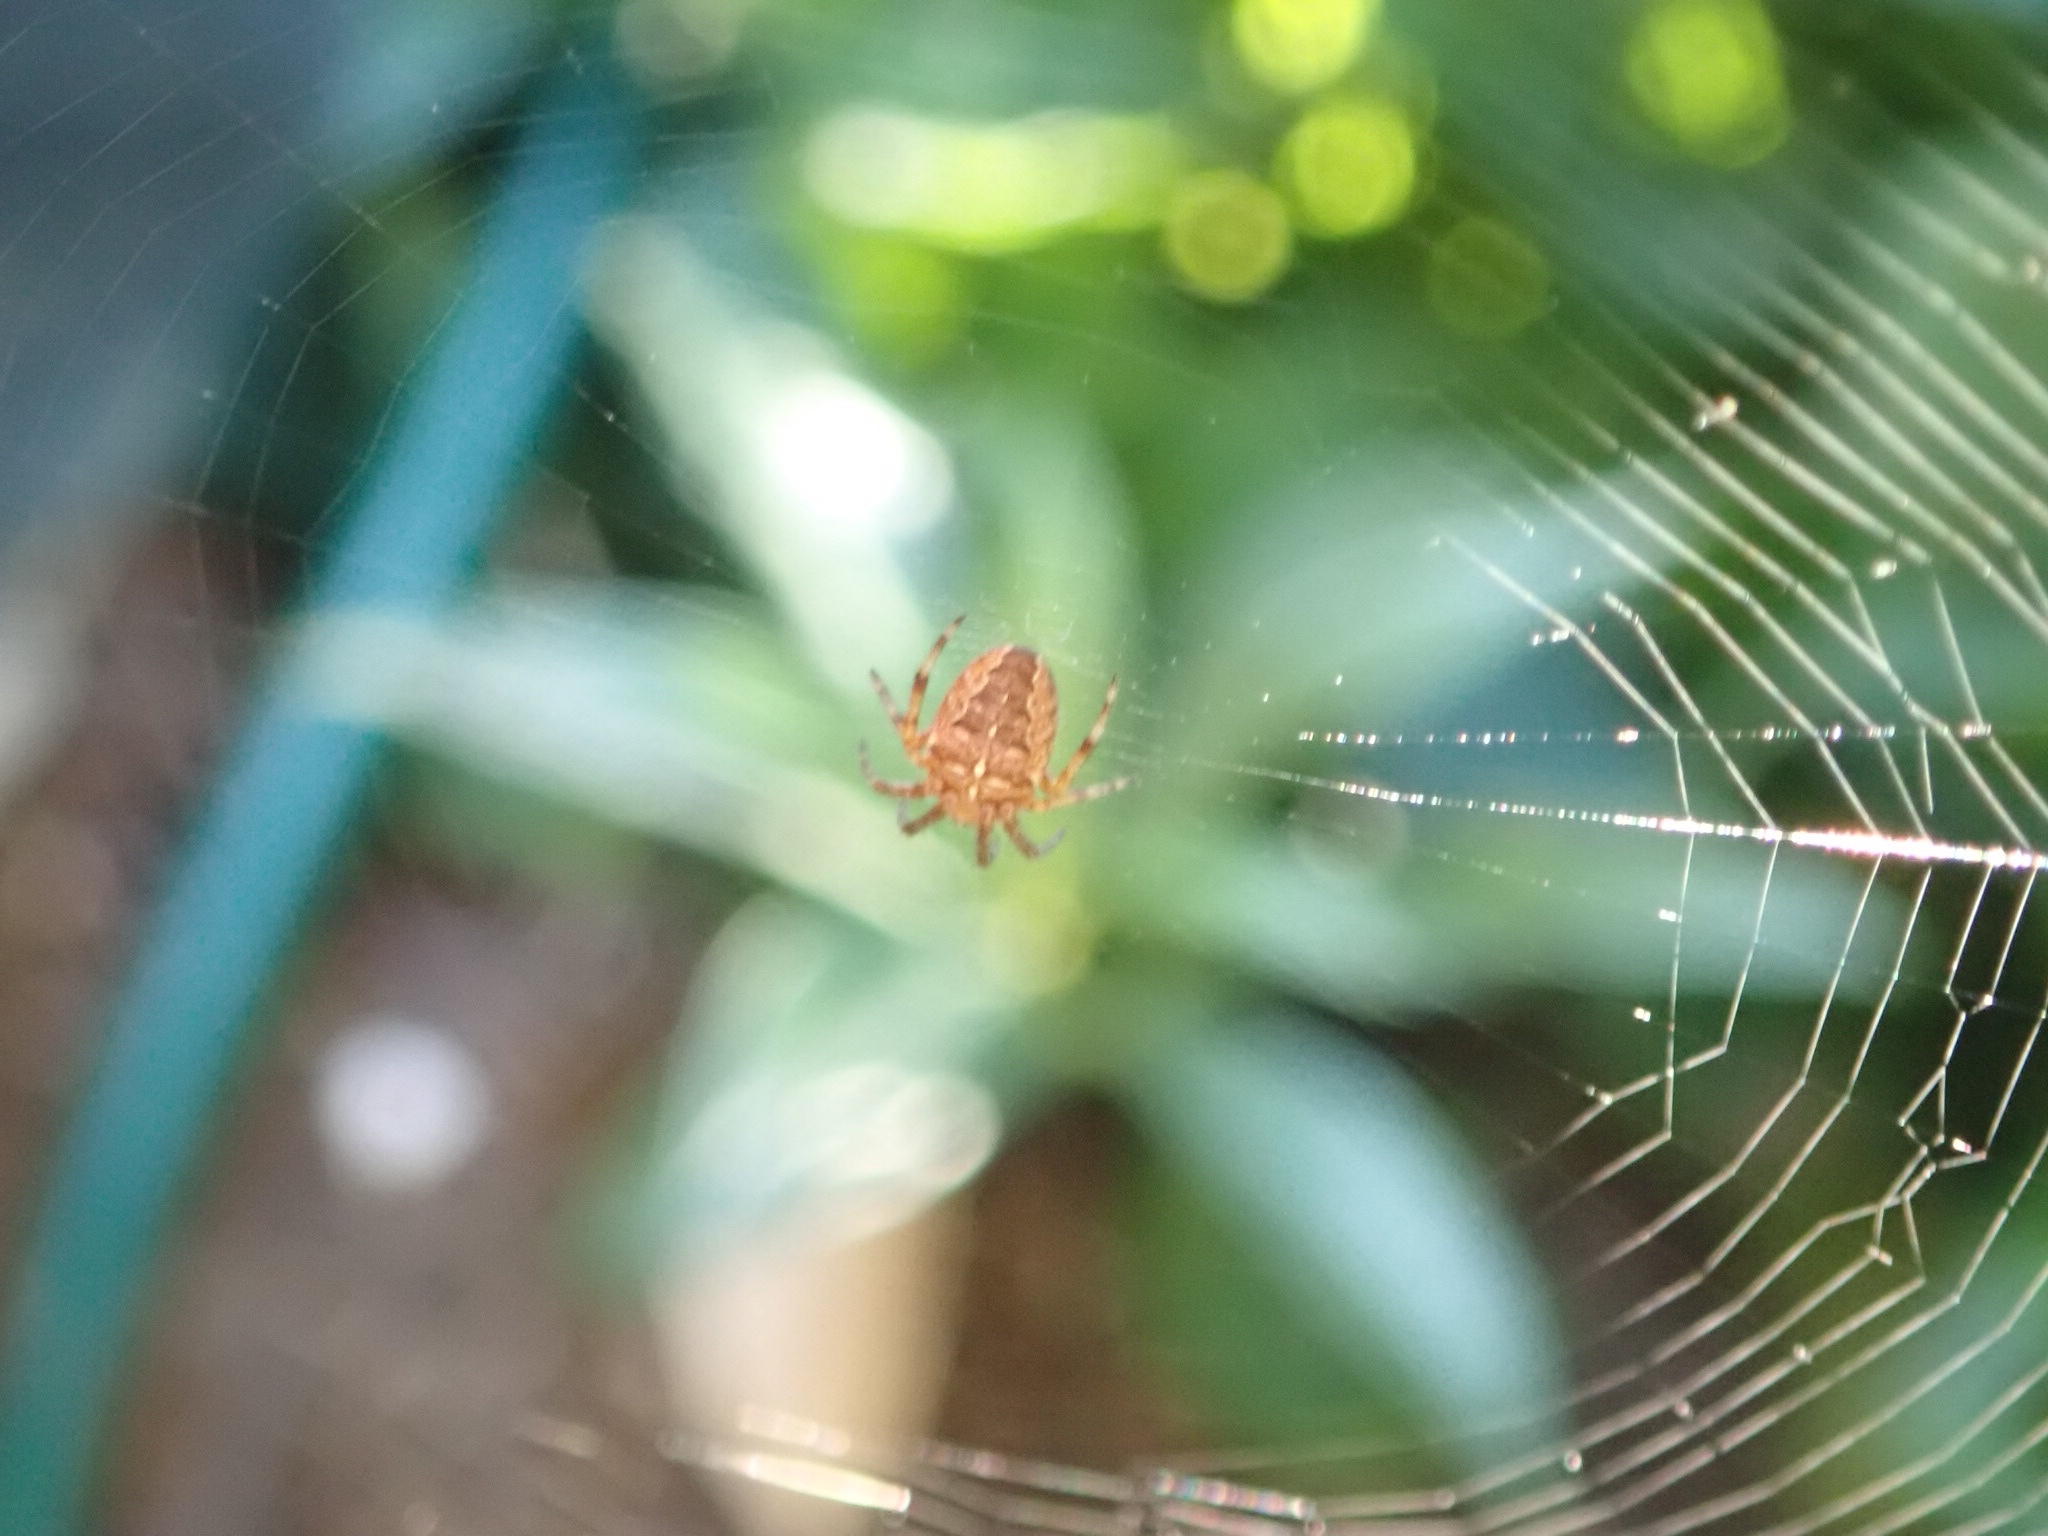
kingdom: Animalia
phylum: Arthropoda
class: Arachnida
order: Araneae
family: Araneidae
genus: Araneus
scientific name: Araneus diadematus
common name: Cross orbweaver
